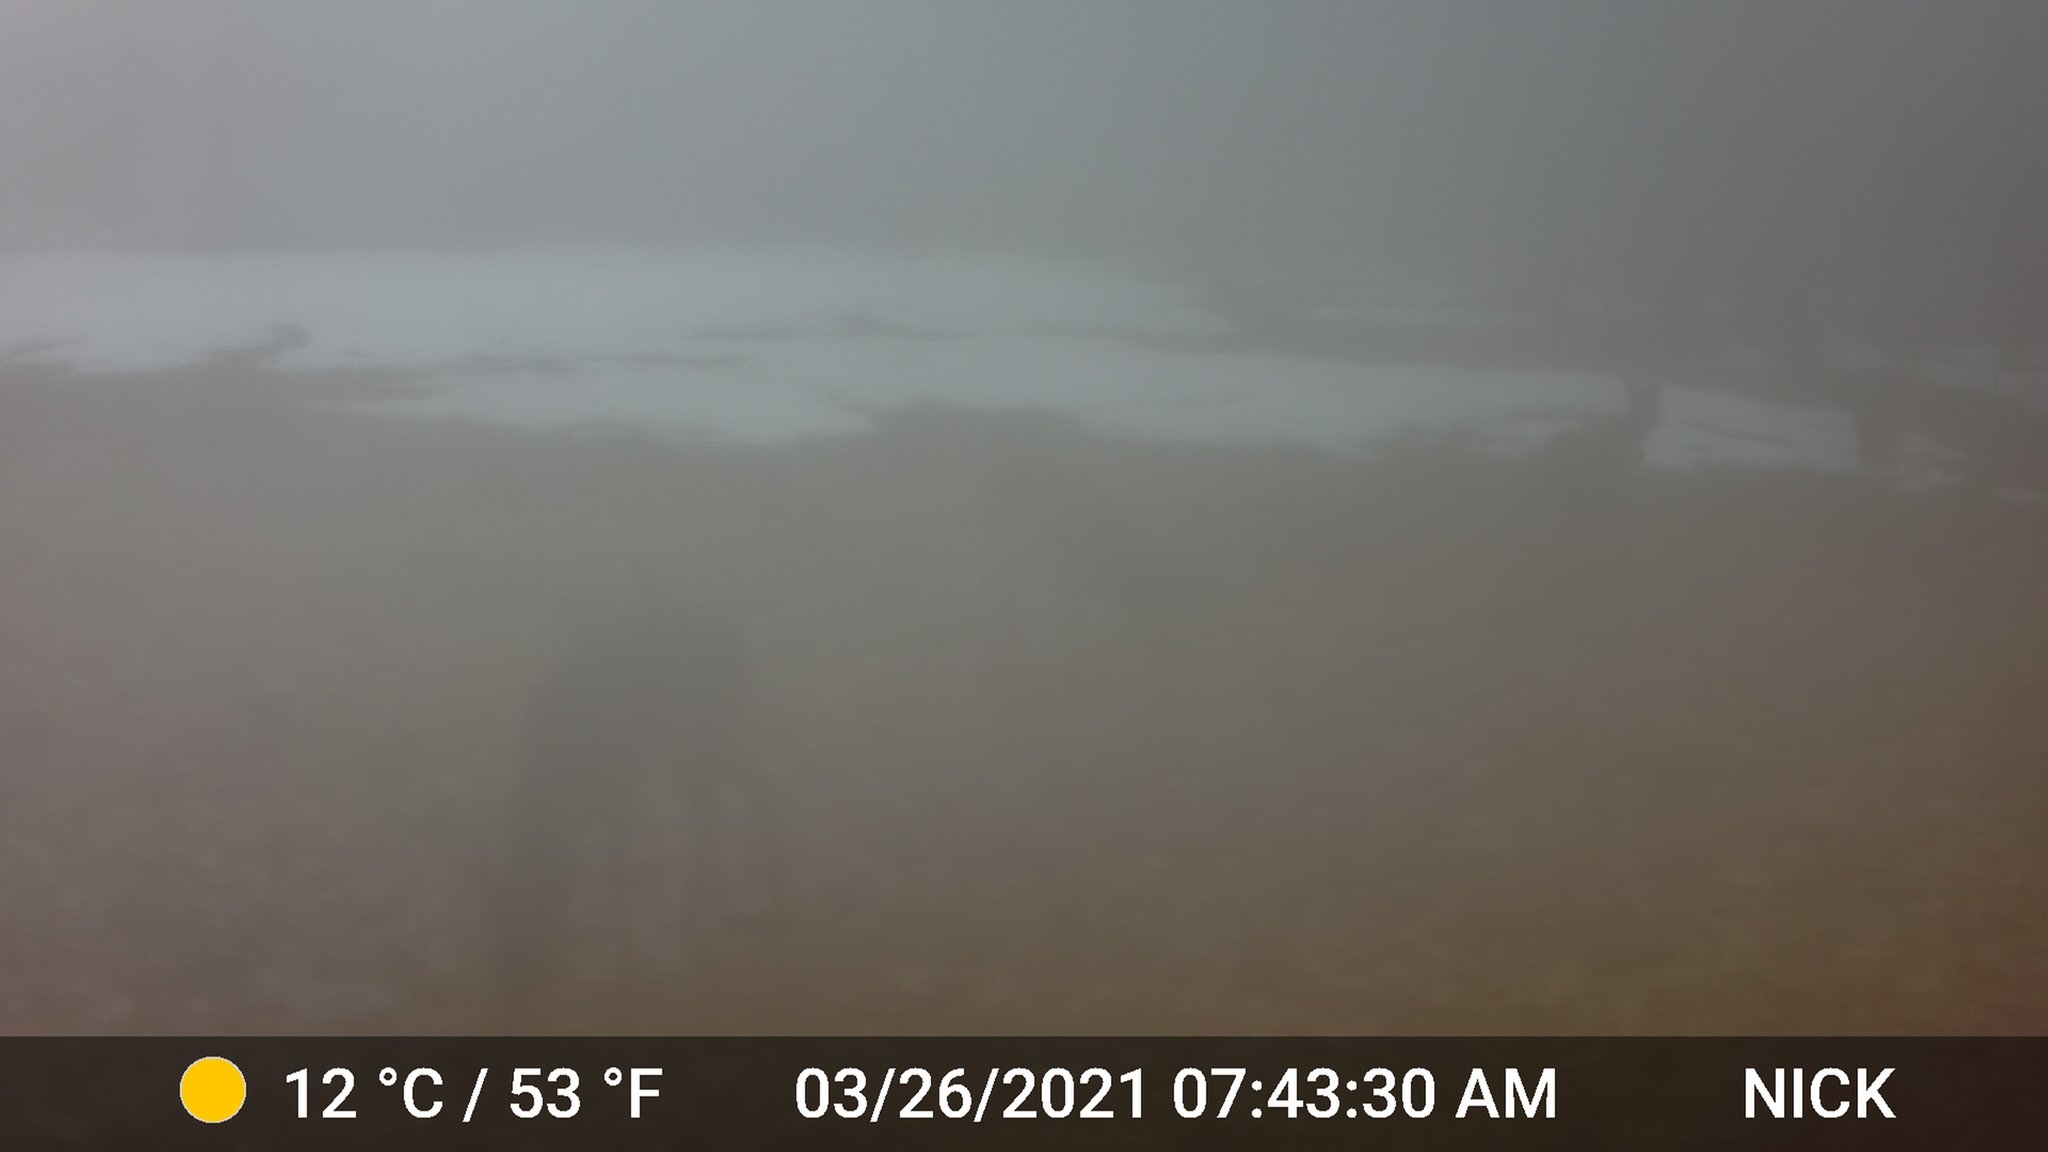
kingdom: Animalia
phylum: Chordata
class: Mammalia
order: Artiodactyla
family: Cervidae
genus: Odocoileus
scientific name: Odocoileus virginianus
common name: White-tailed deer
